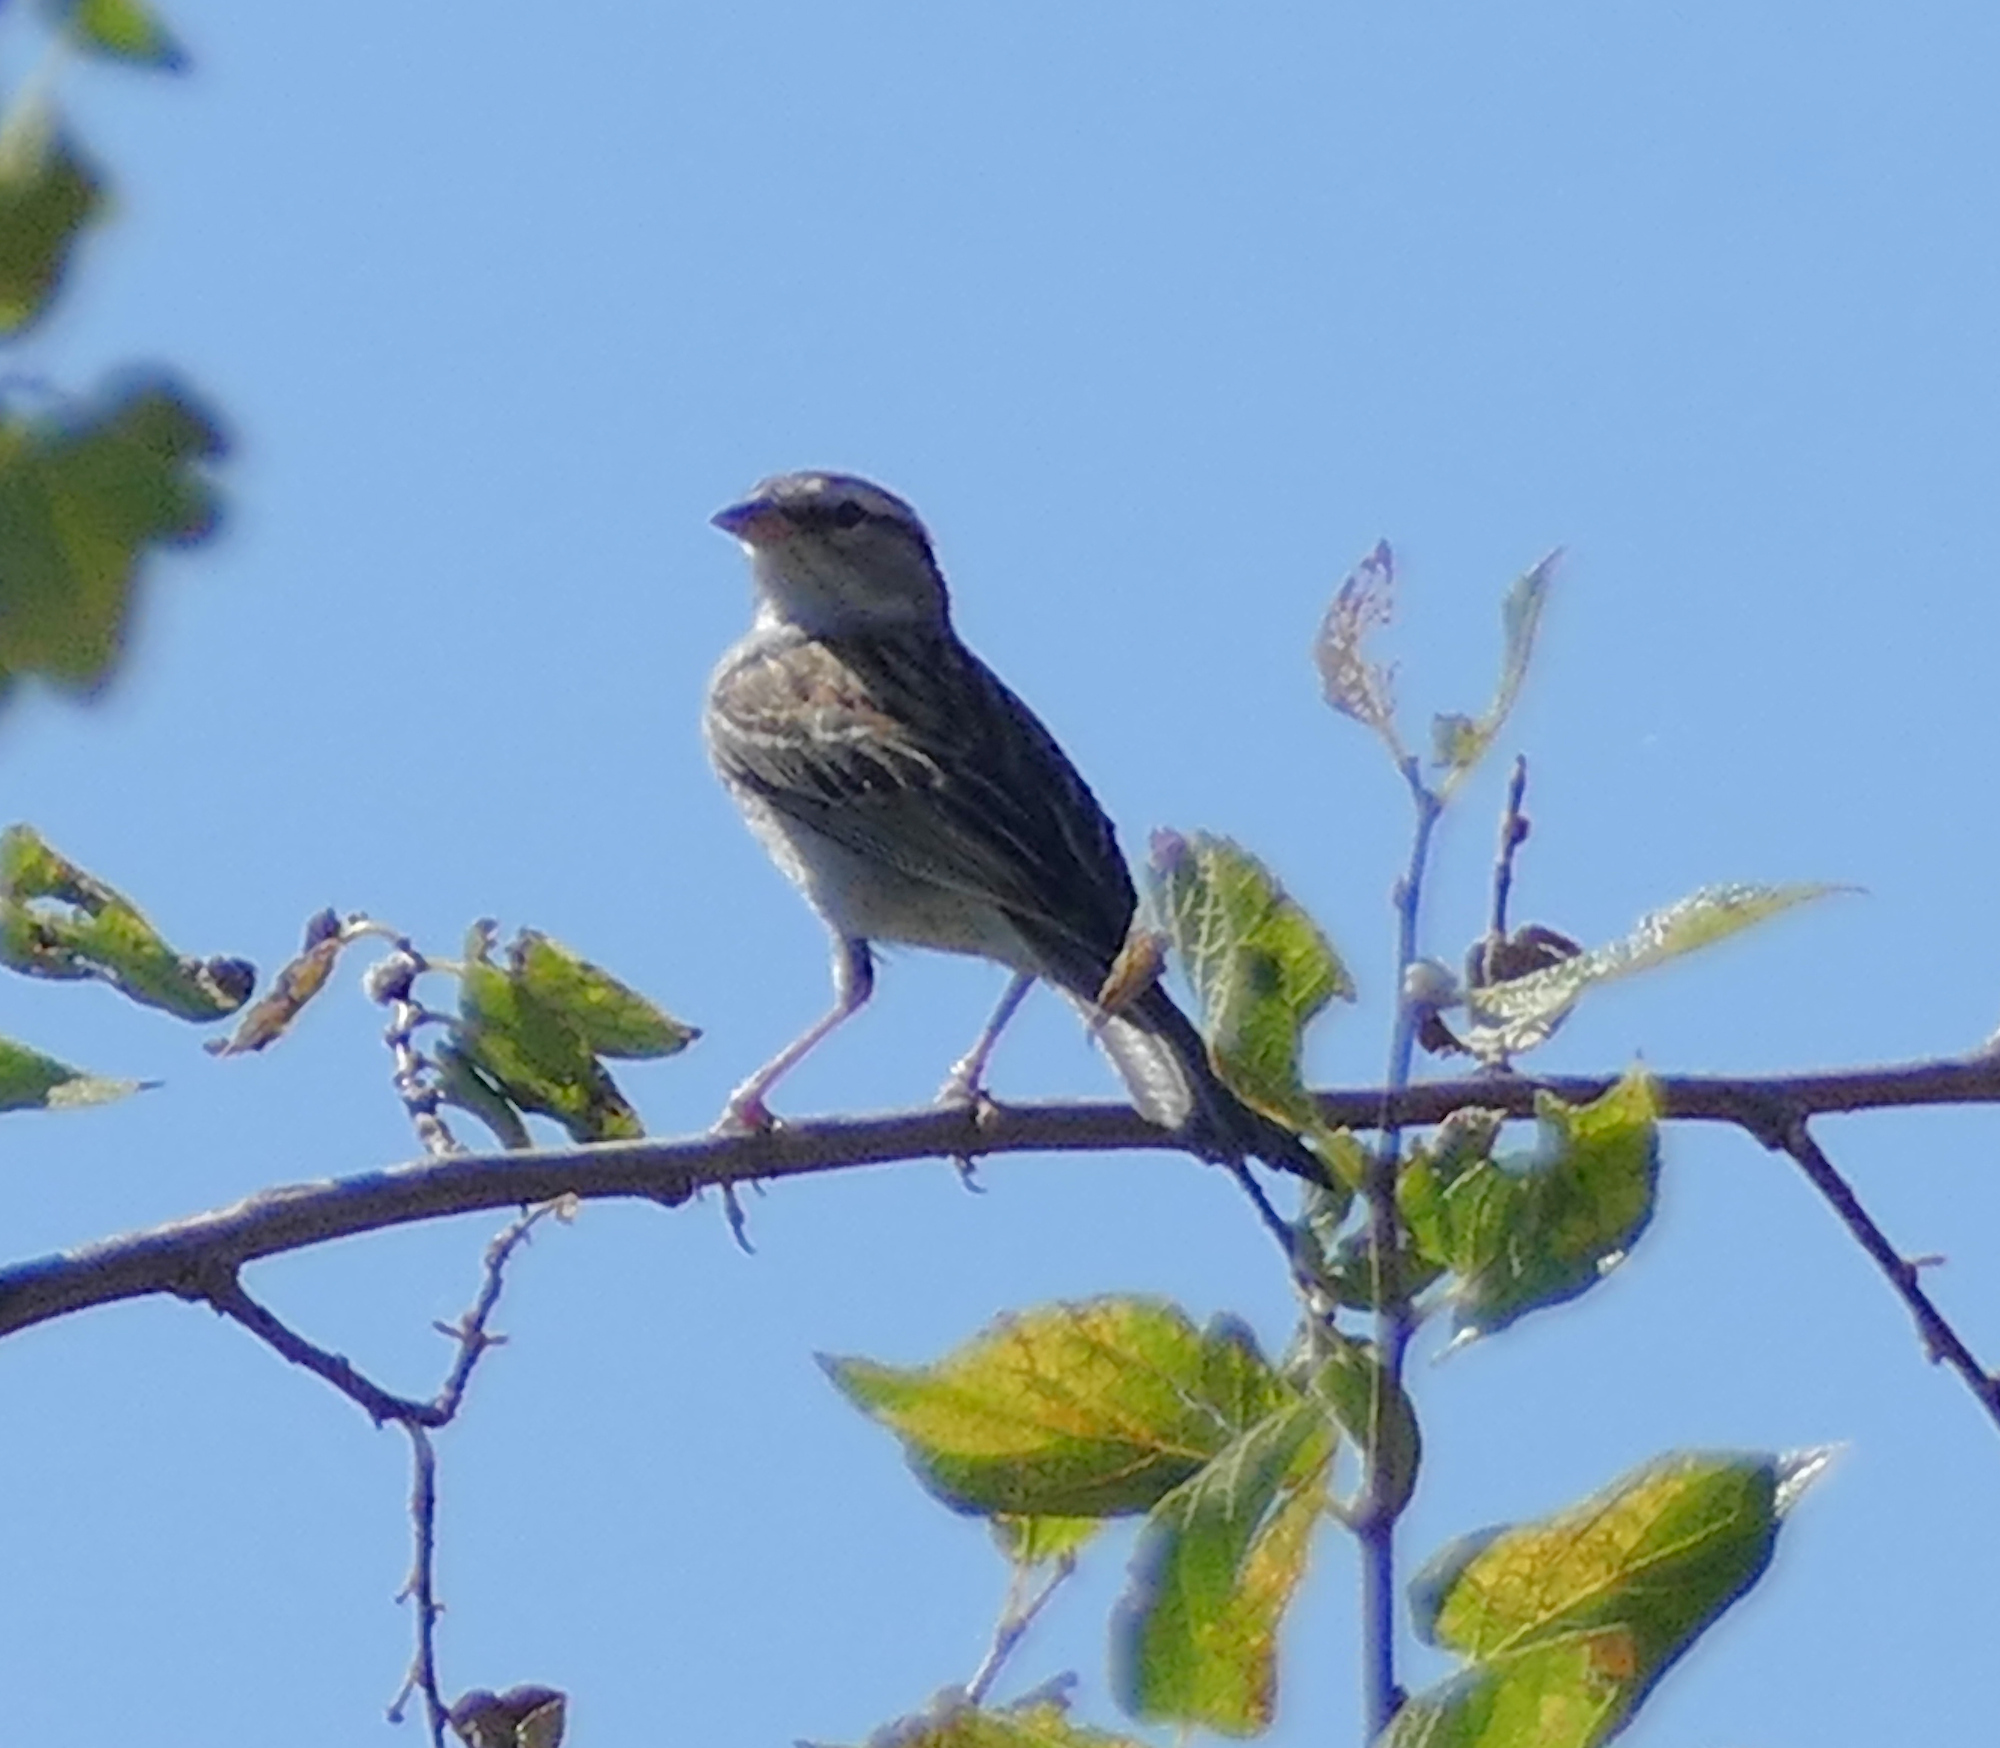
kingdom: Animalia
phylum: Chordata
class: Aves
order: Passeriformes
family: Passerellidae
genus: Spizella
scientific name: Spizella passerina
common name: Chipping sparrow
